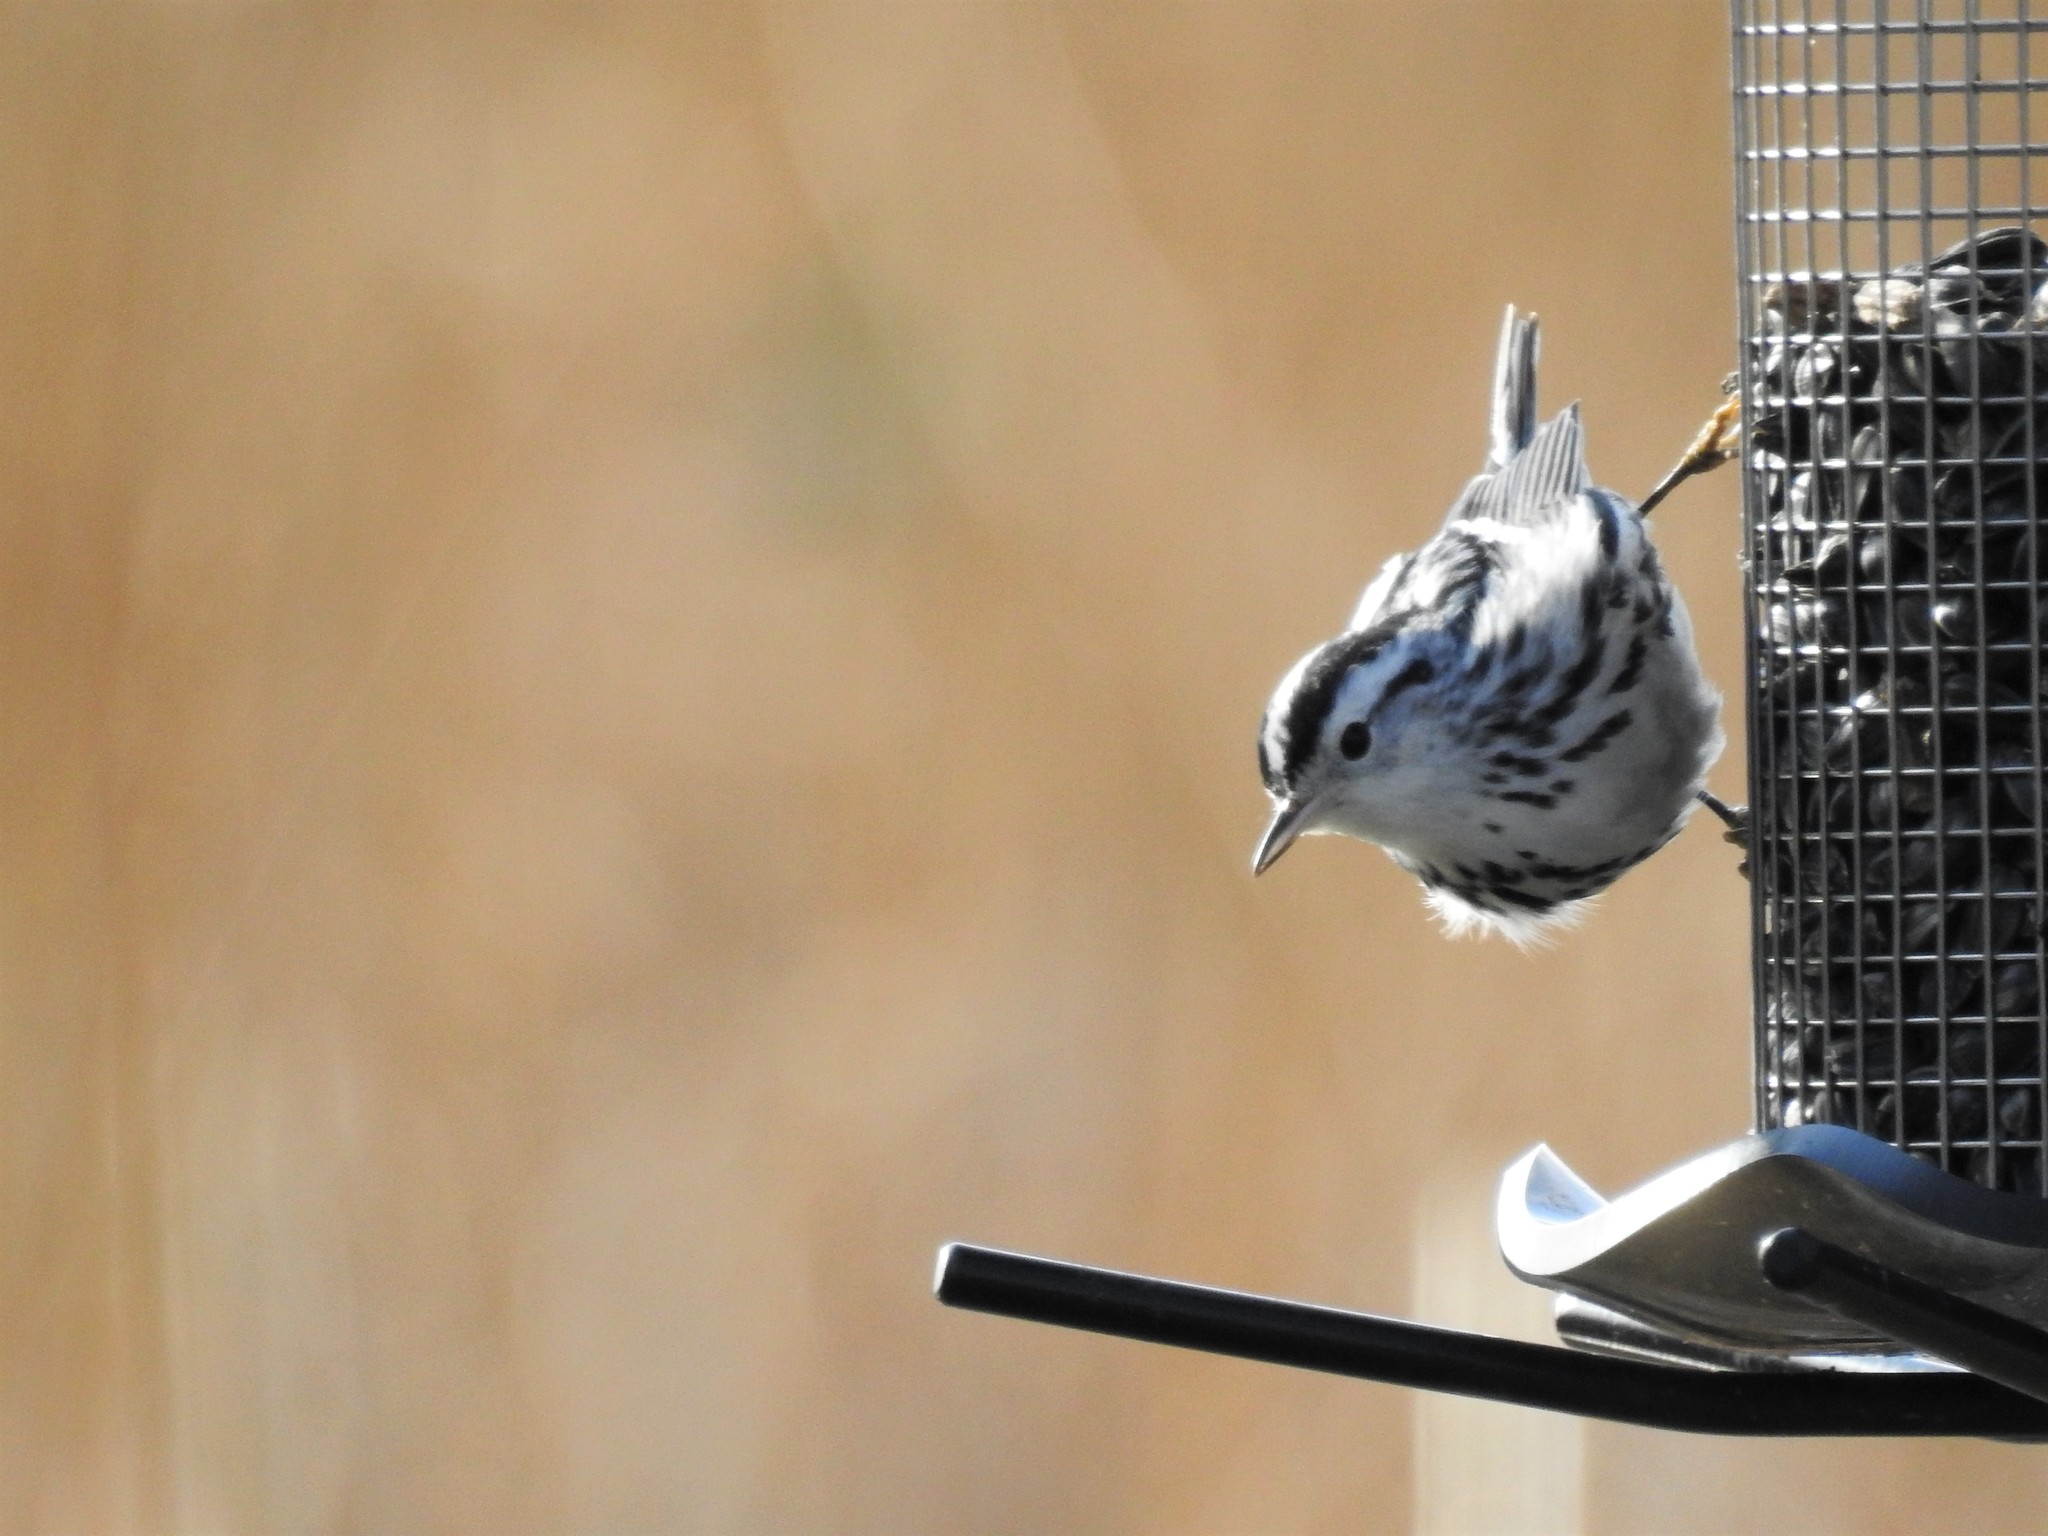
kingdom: Animalia
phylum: Chordata
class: Aves
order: Passeriformes
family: Parulidae
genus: Mniotilta
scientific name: Mniotilta varia
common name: Black-and-white warbler
